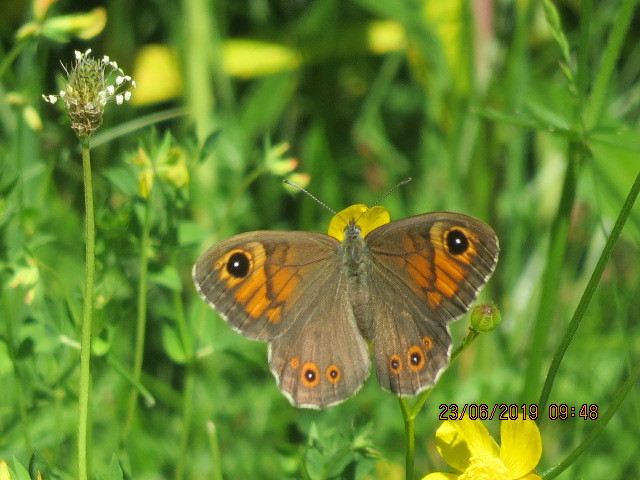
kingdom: Animalia
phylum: Arthropoda
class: Insecta
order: Lepidoptera
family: Nymphalidae
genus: Pararge
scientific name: Pararge Lasiommata maera
